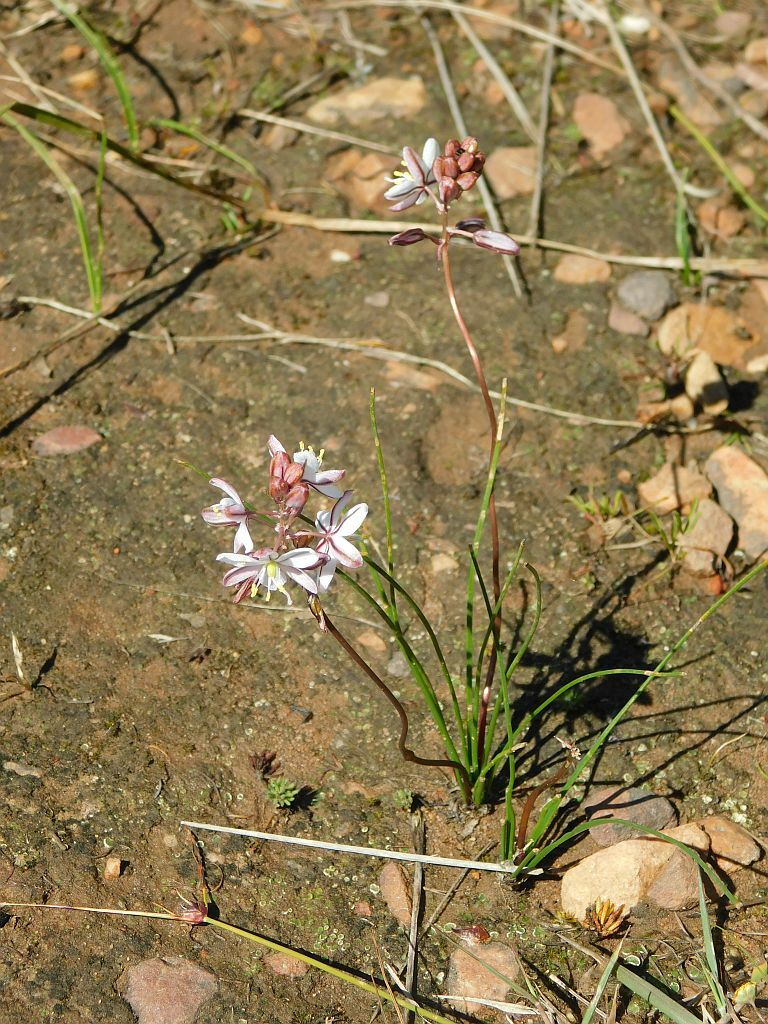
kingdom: Plantae
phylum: Tracheophyta
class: Liliopsida
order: Asparagales
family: Asparagaceae
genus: Drimia
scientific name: Drimia exuviata
